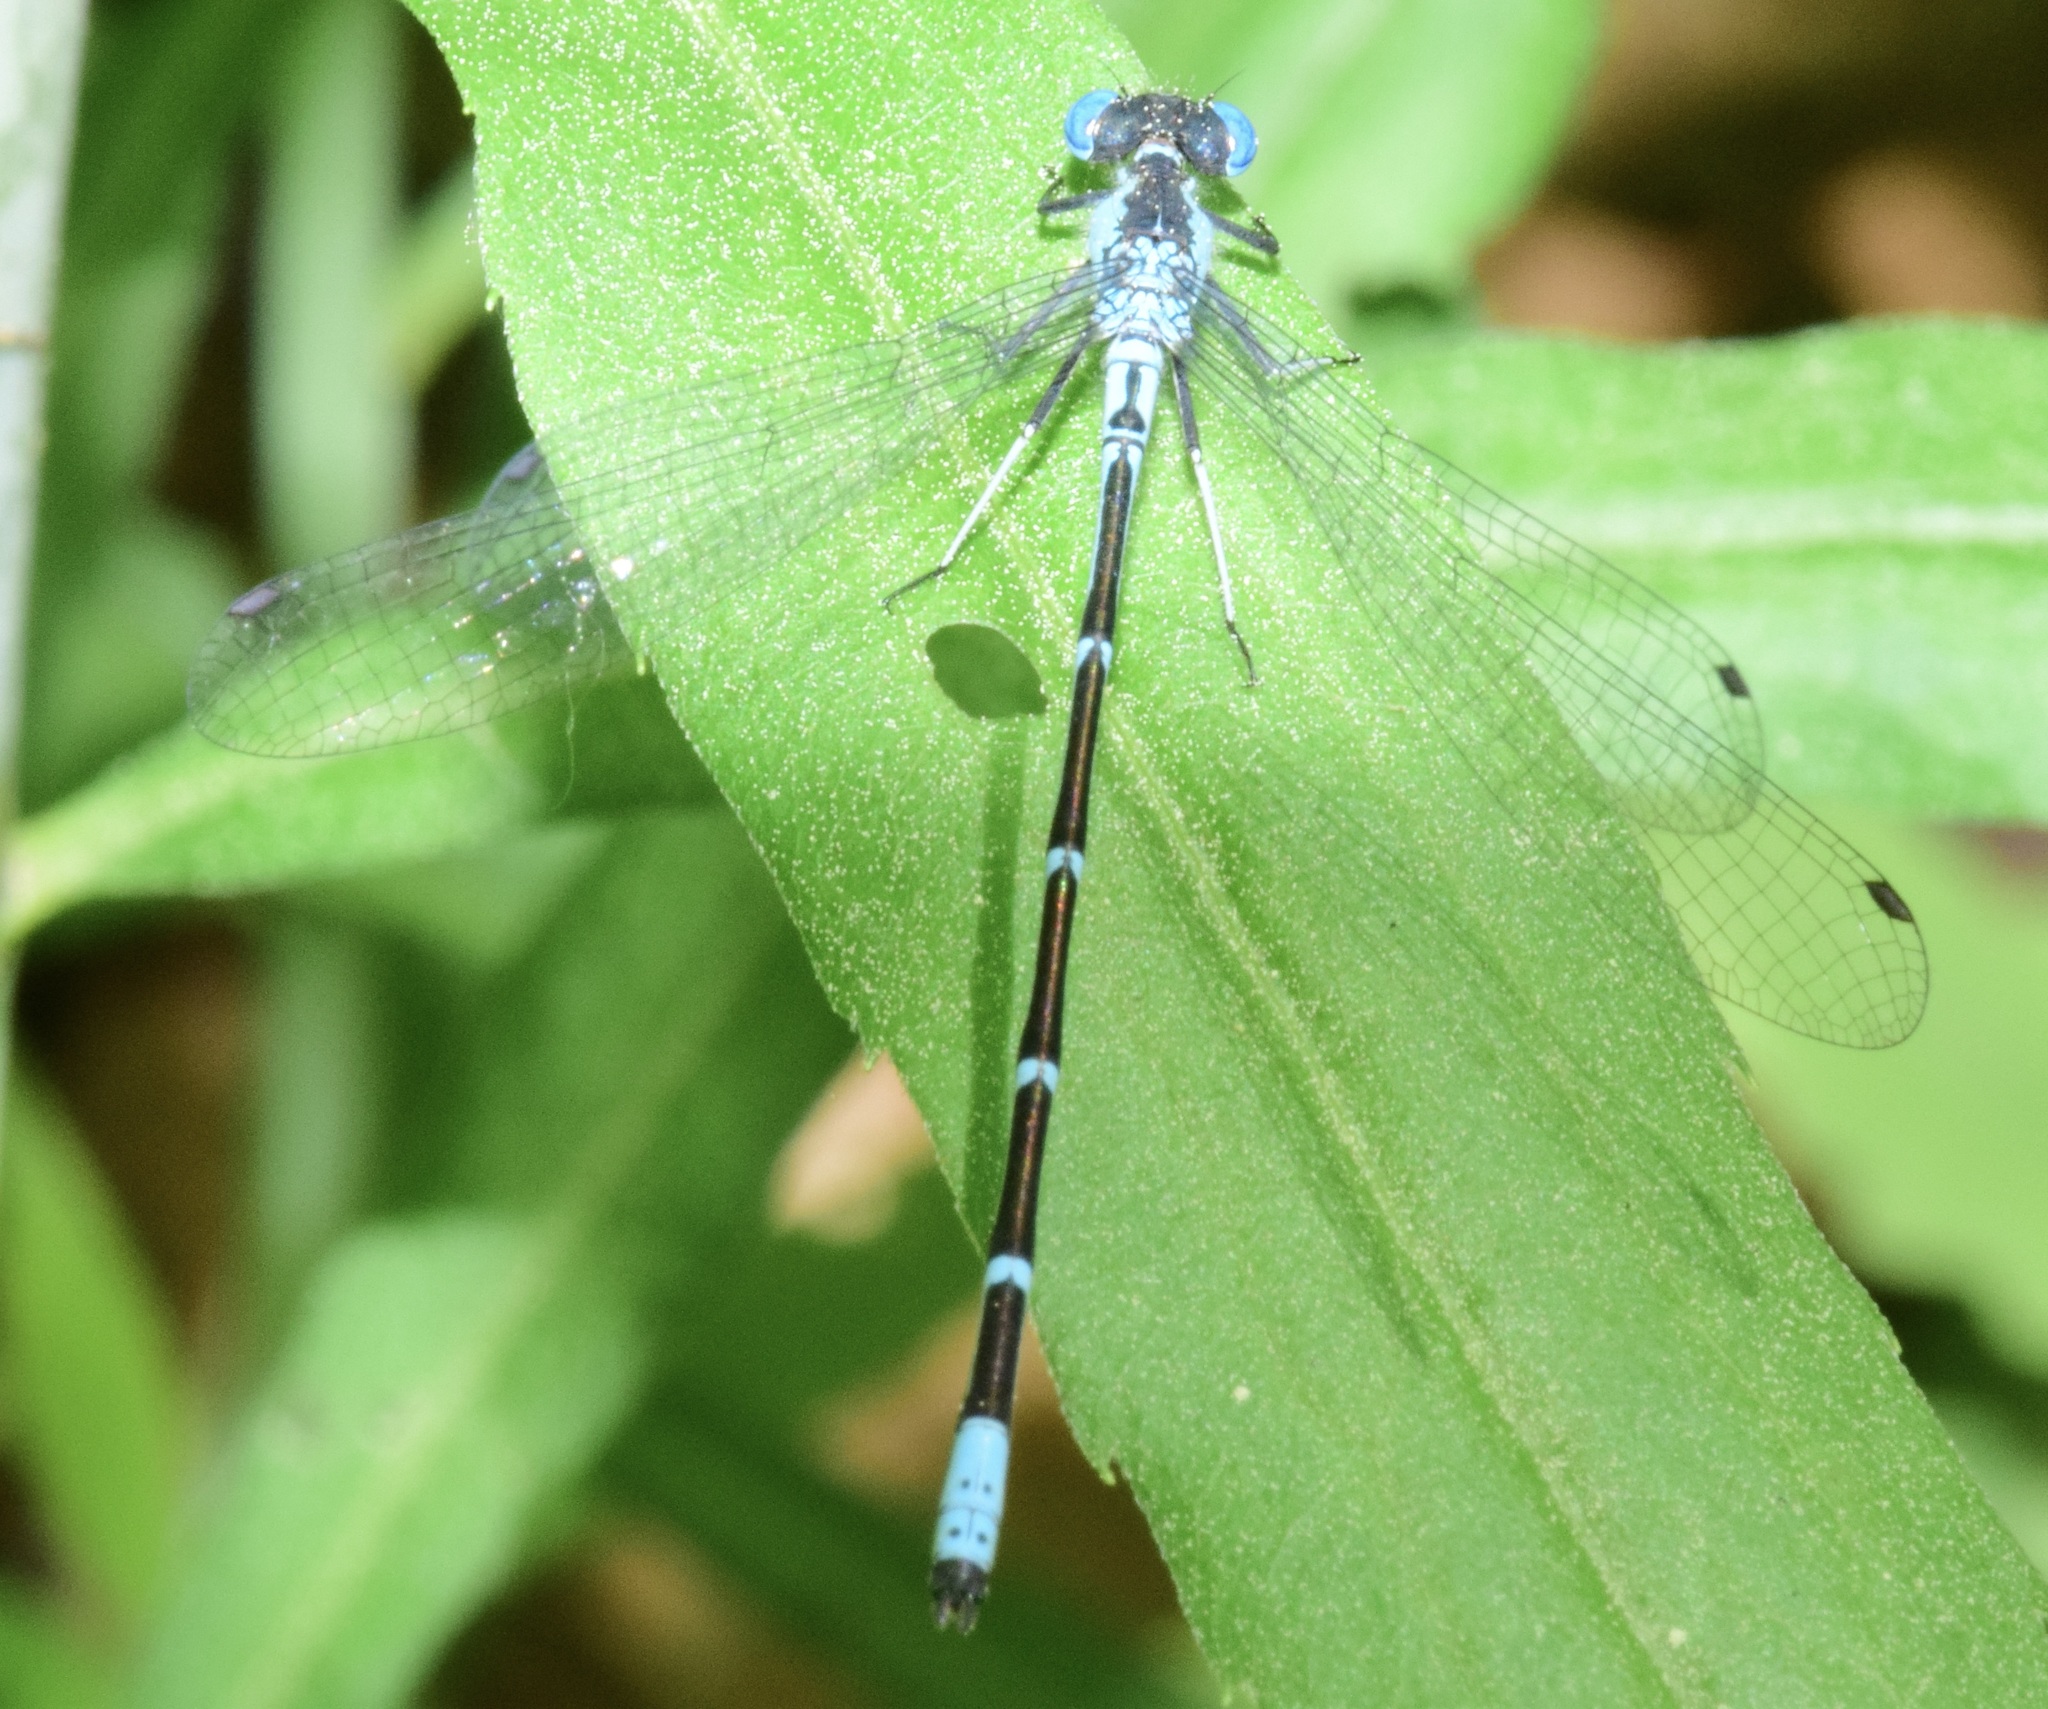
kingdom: Animalia
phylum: Arthropoda
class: Insecta
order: Odonata
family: Coenagrionidae
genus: Chromagrion
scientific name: Chromagrion conditum
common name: Aurora damsel
